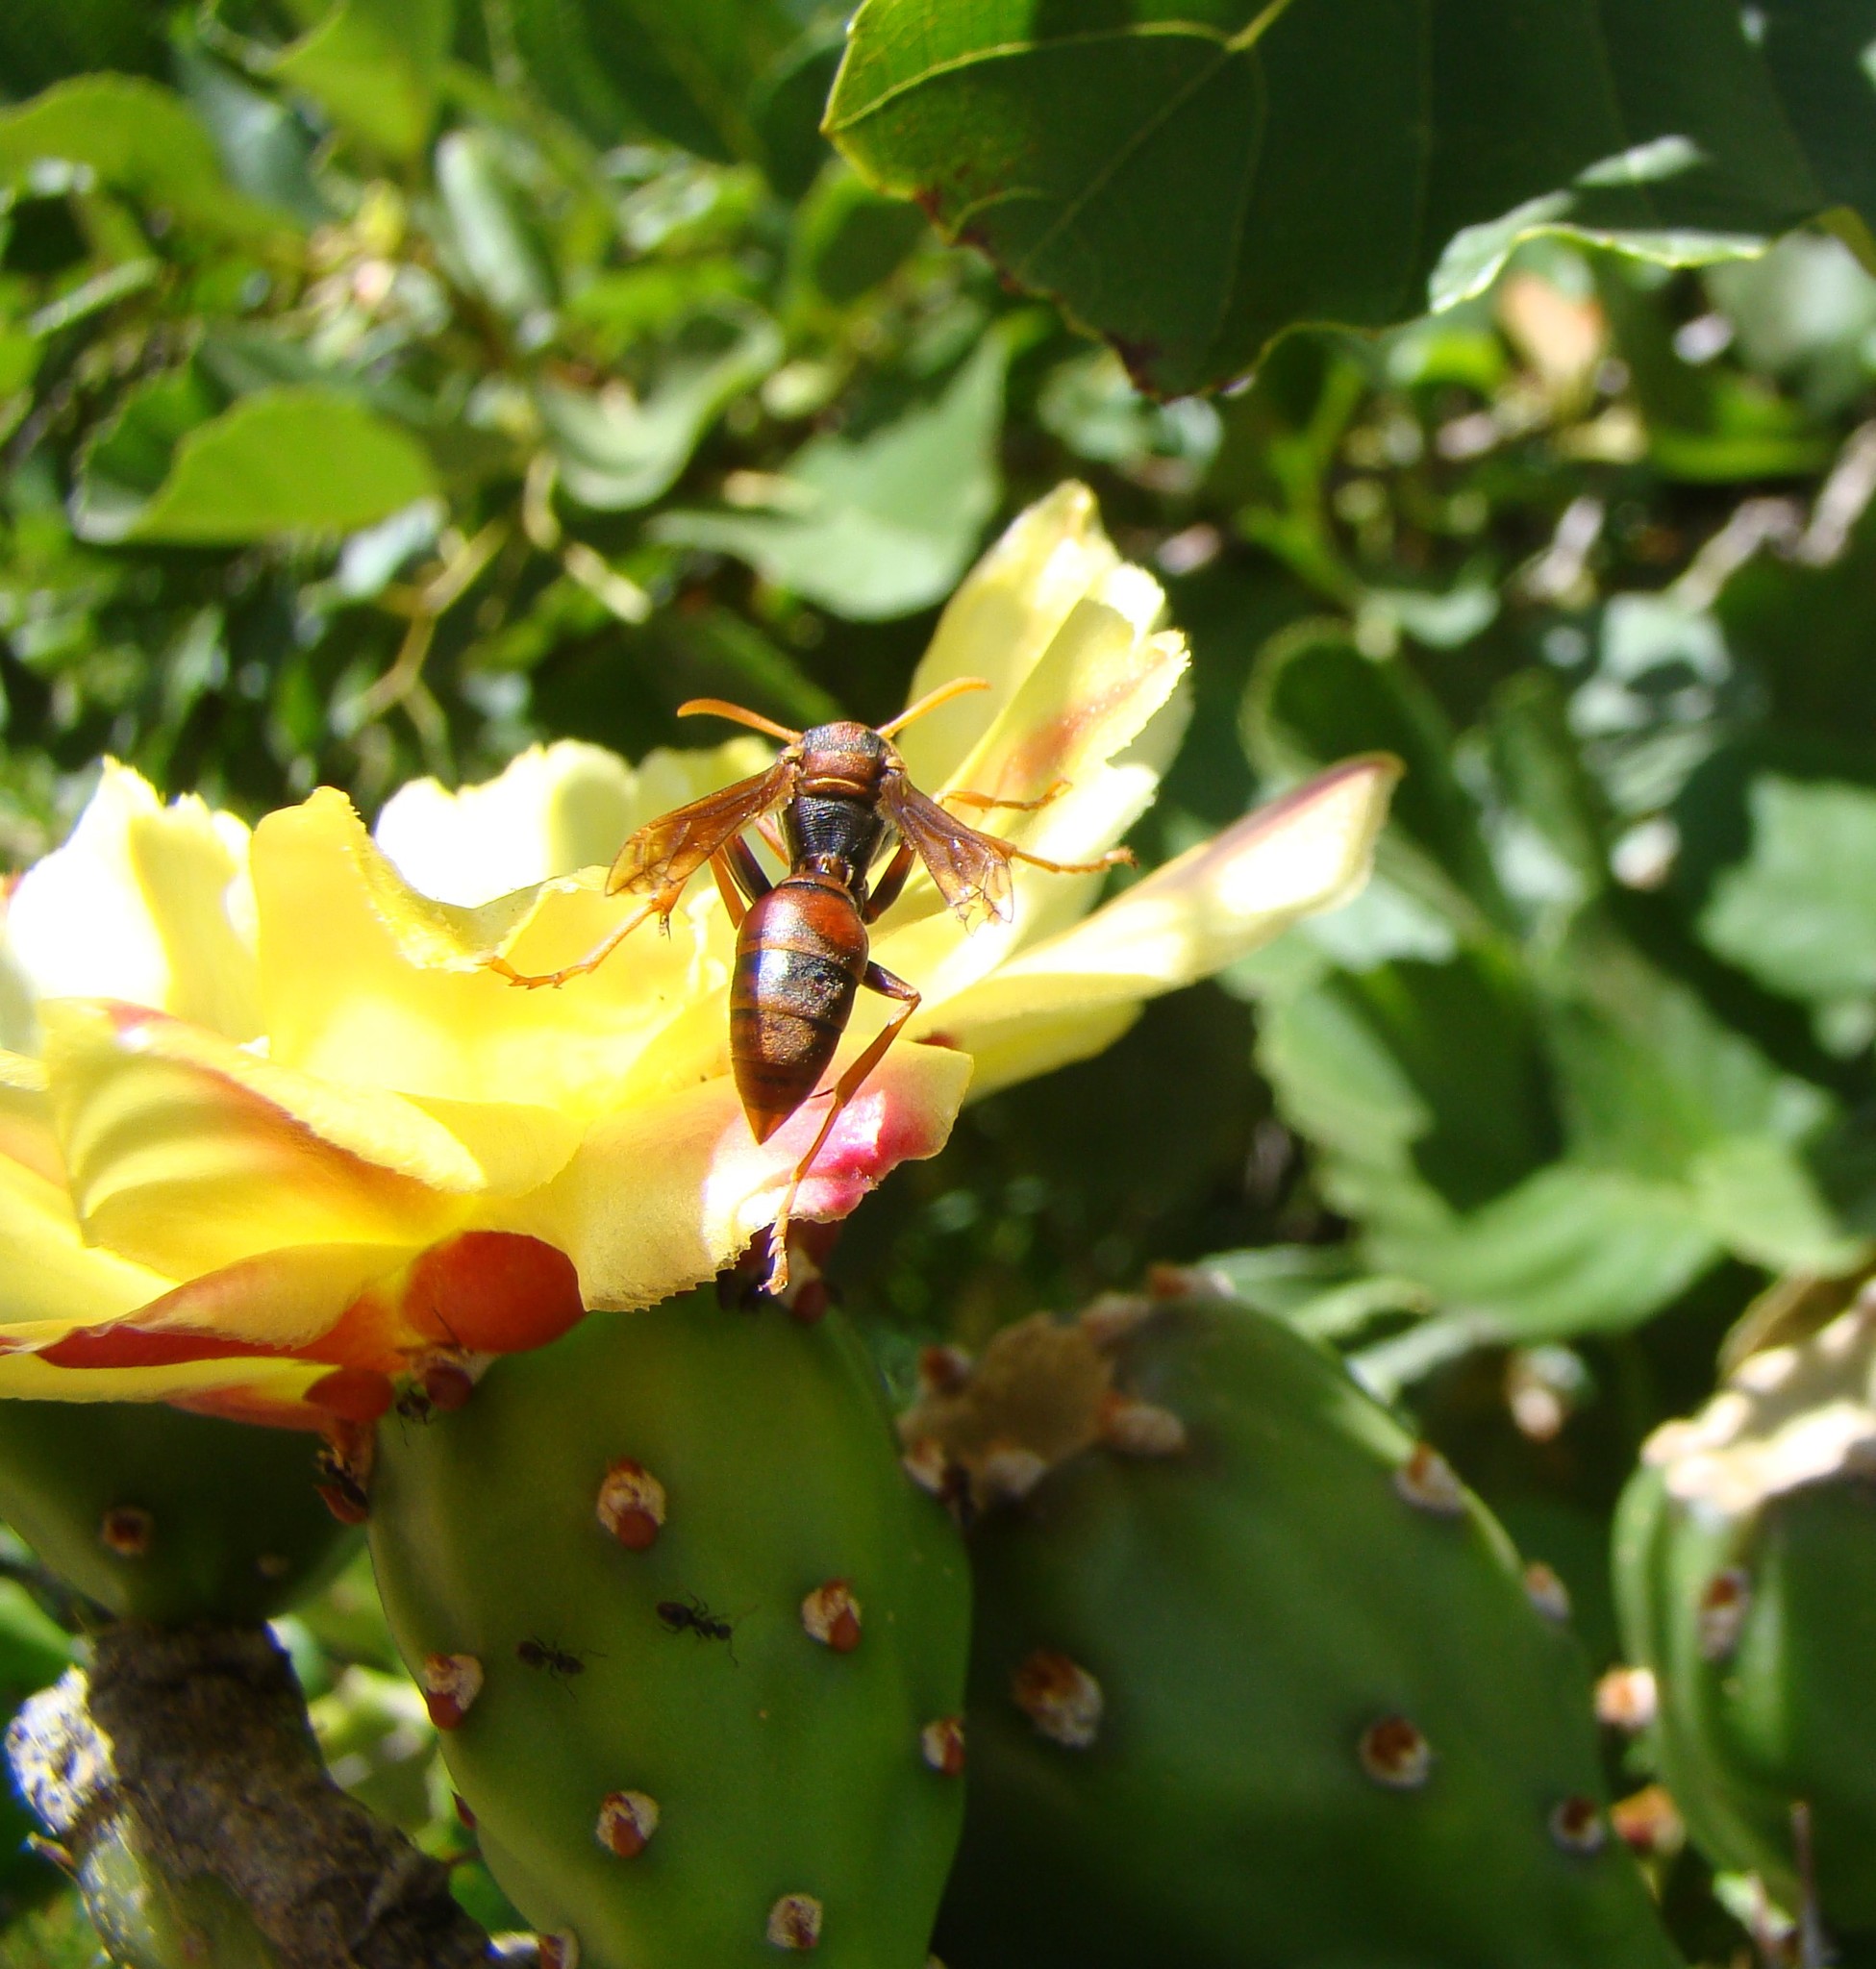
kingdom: Animalia
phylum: Arthropoda
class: Insecta
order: Hymenoptera
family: Eumenidae
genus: Polistes
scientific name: Polistes humilis
